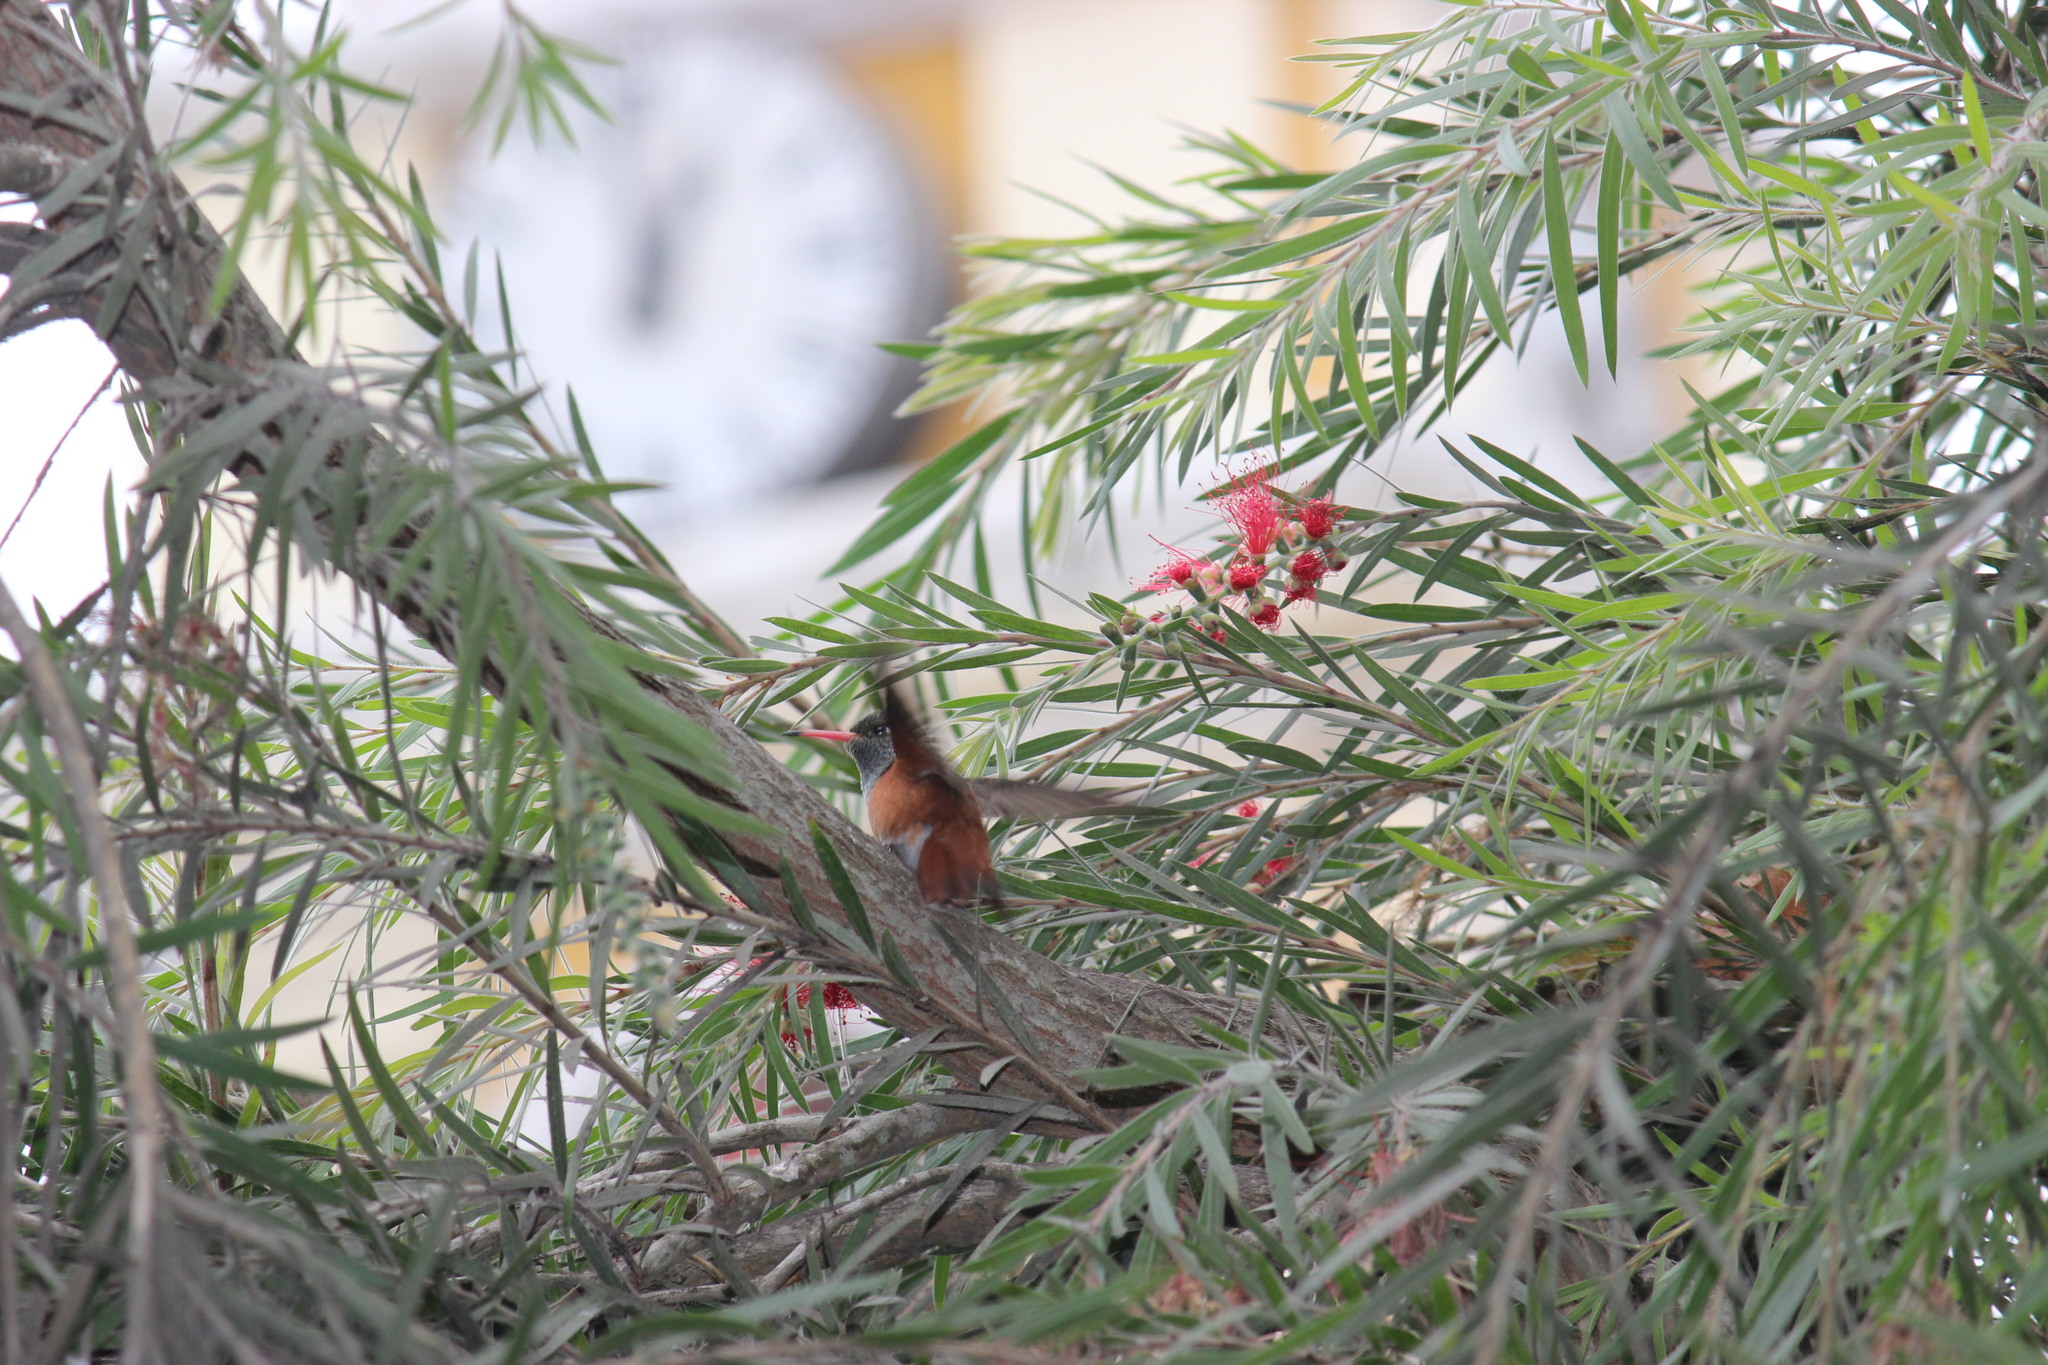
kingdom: Animalia
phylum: Chordata
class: Aves
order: Apodiformes
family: Trochilidae
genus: Amazilis
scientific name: Amazilis amazilia
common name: Amazilia hummingbird
